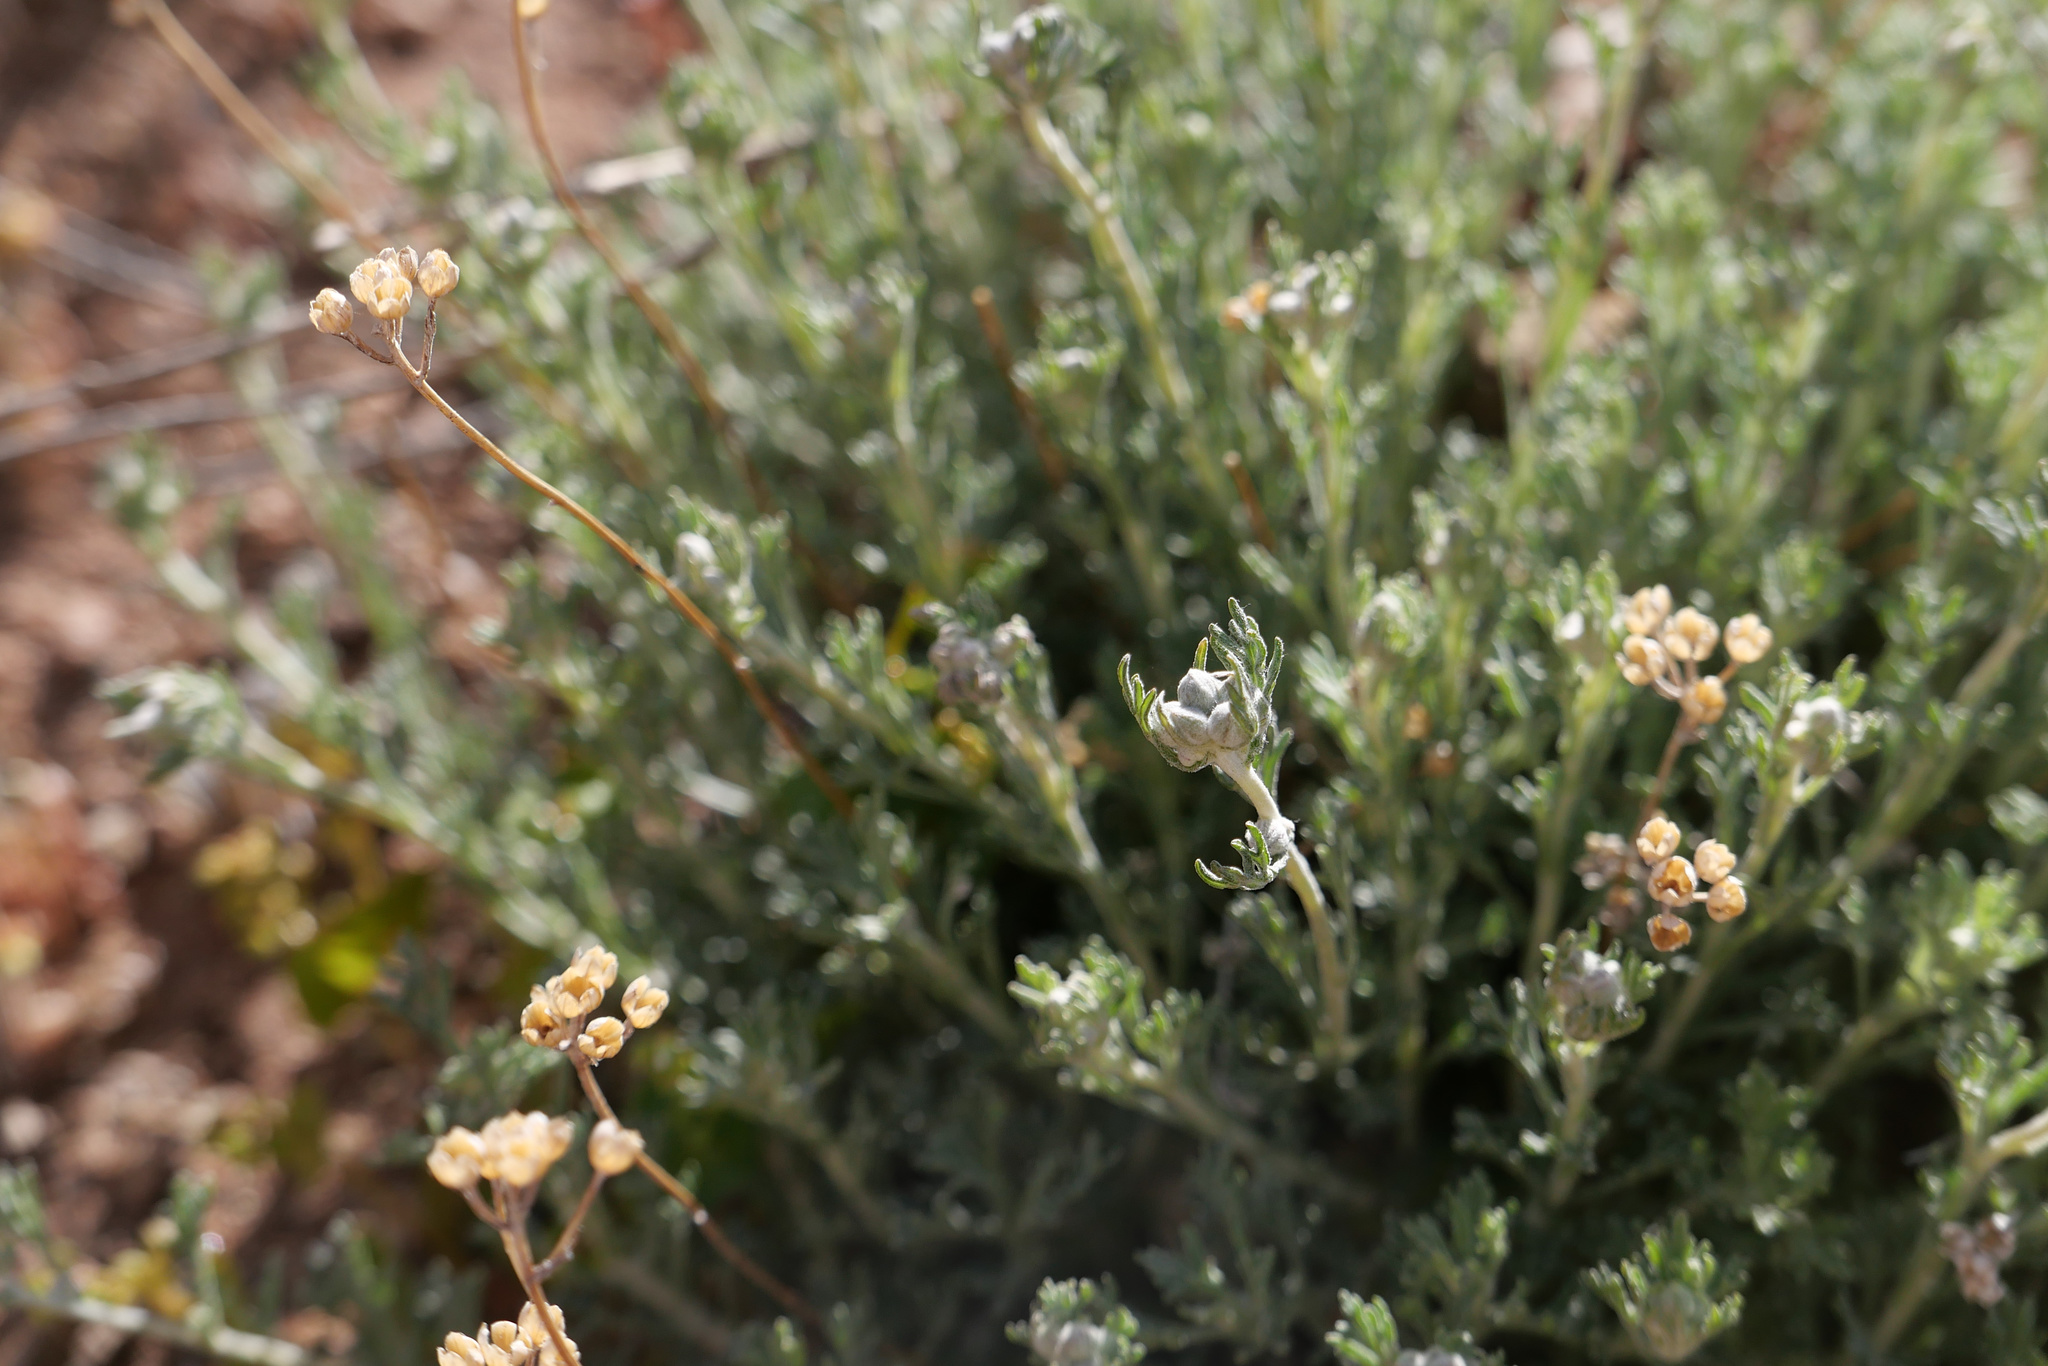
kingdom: Plantae
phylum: Tracheophyta
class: Magnoliopsida
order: Asterales
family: Asteraceae
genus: Eriophyllum
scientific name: Eriophyllum confertiflorum
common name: Golden-yarrow
